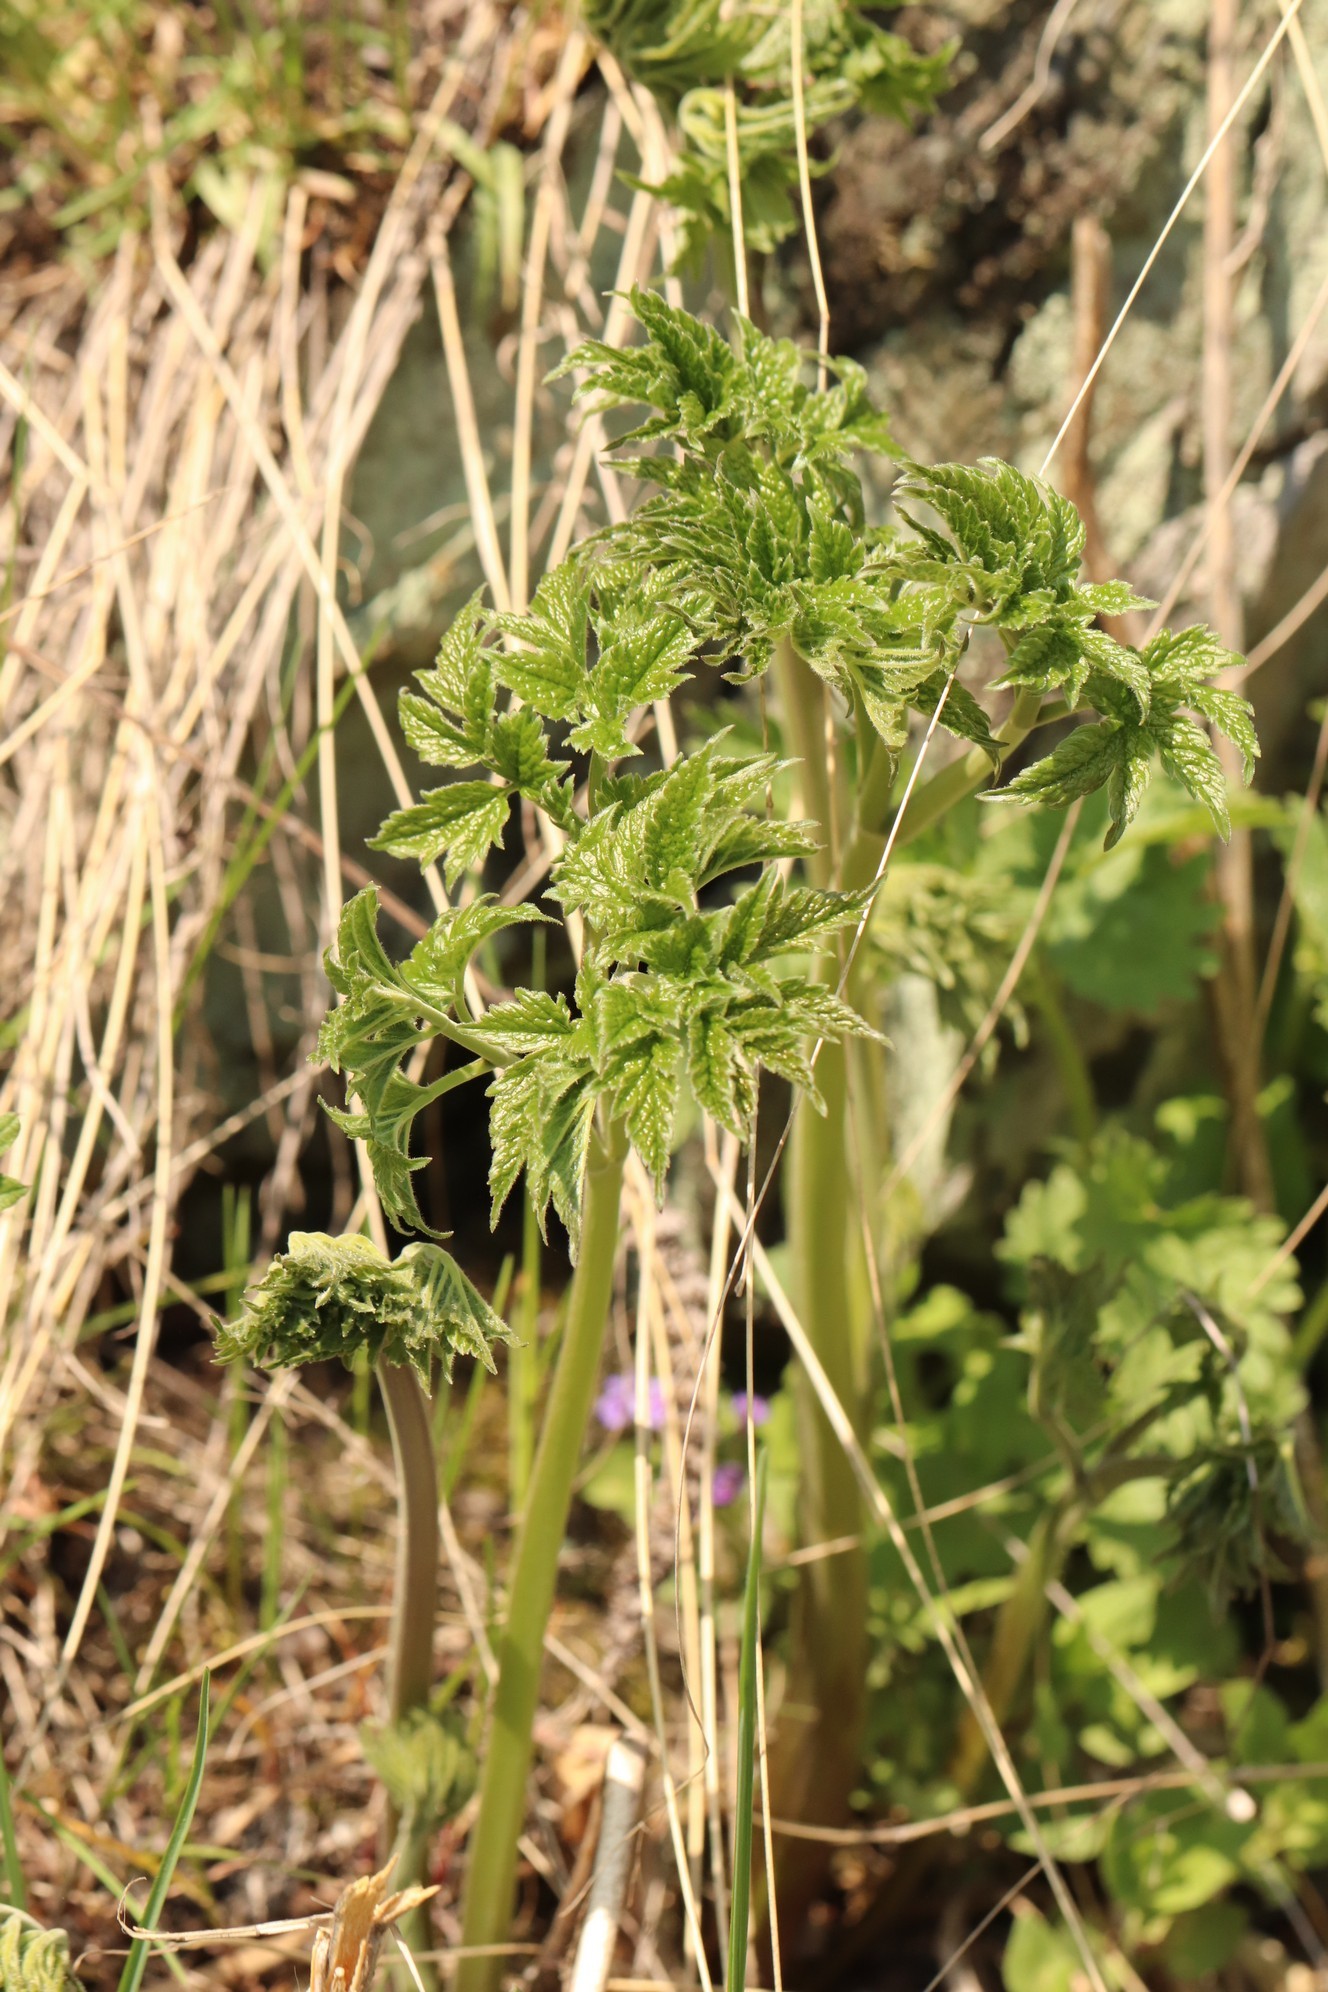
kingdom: Plantae
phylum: Tracheophyta
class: Magnoliopsida
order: Ranunculales
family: Ranunculaceae
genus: Actaea
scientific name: Actaea cimicifuga
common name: Chinese cimicifuga
